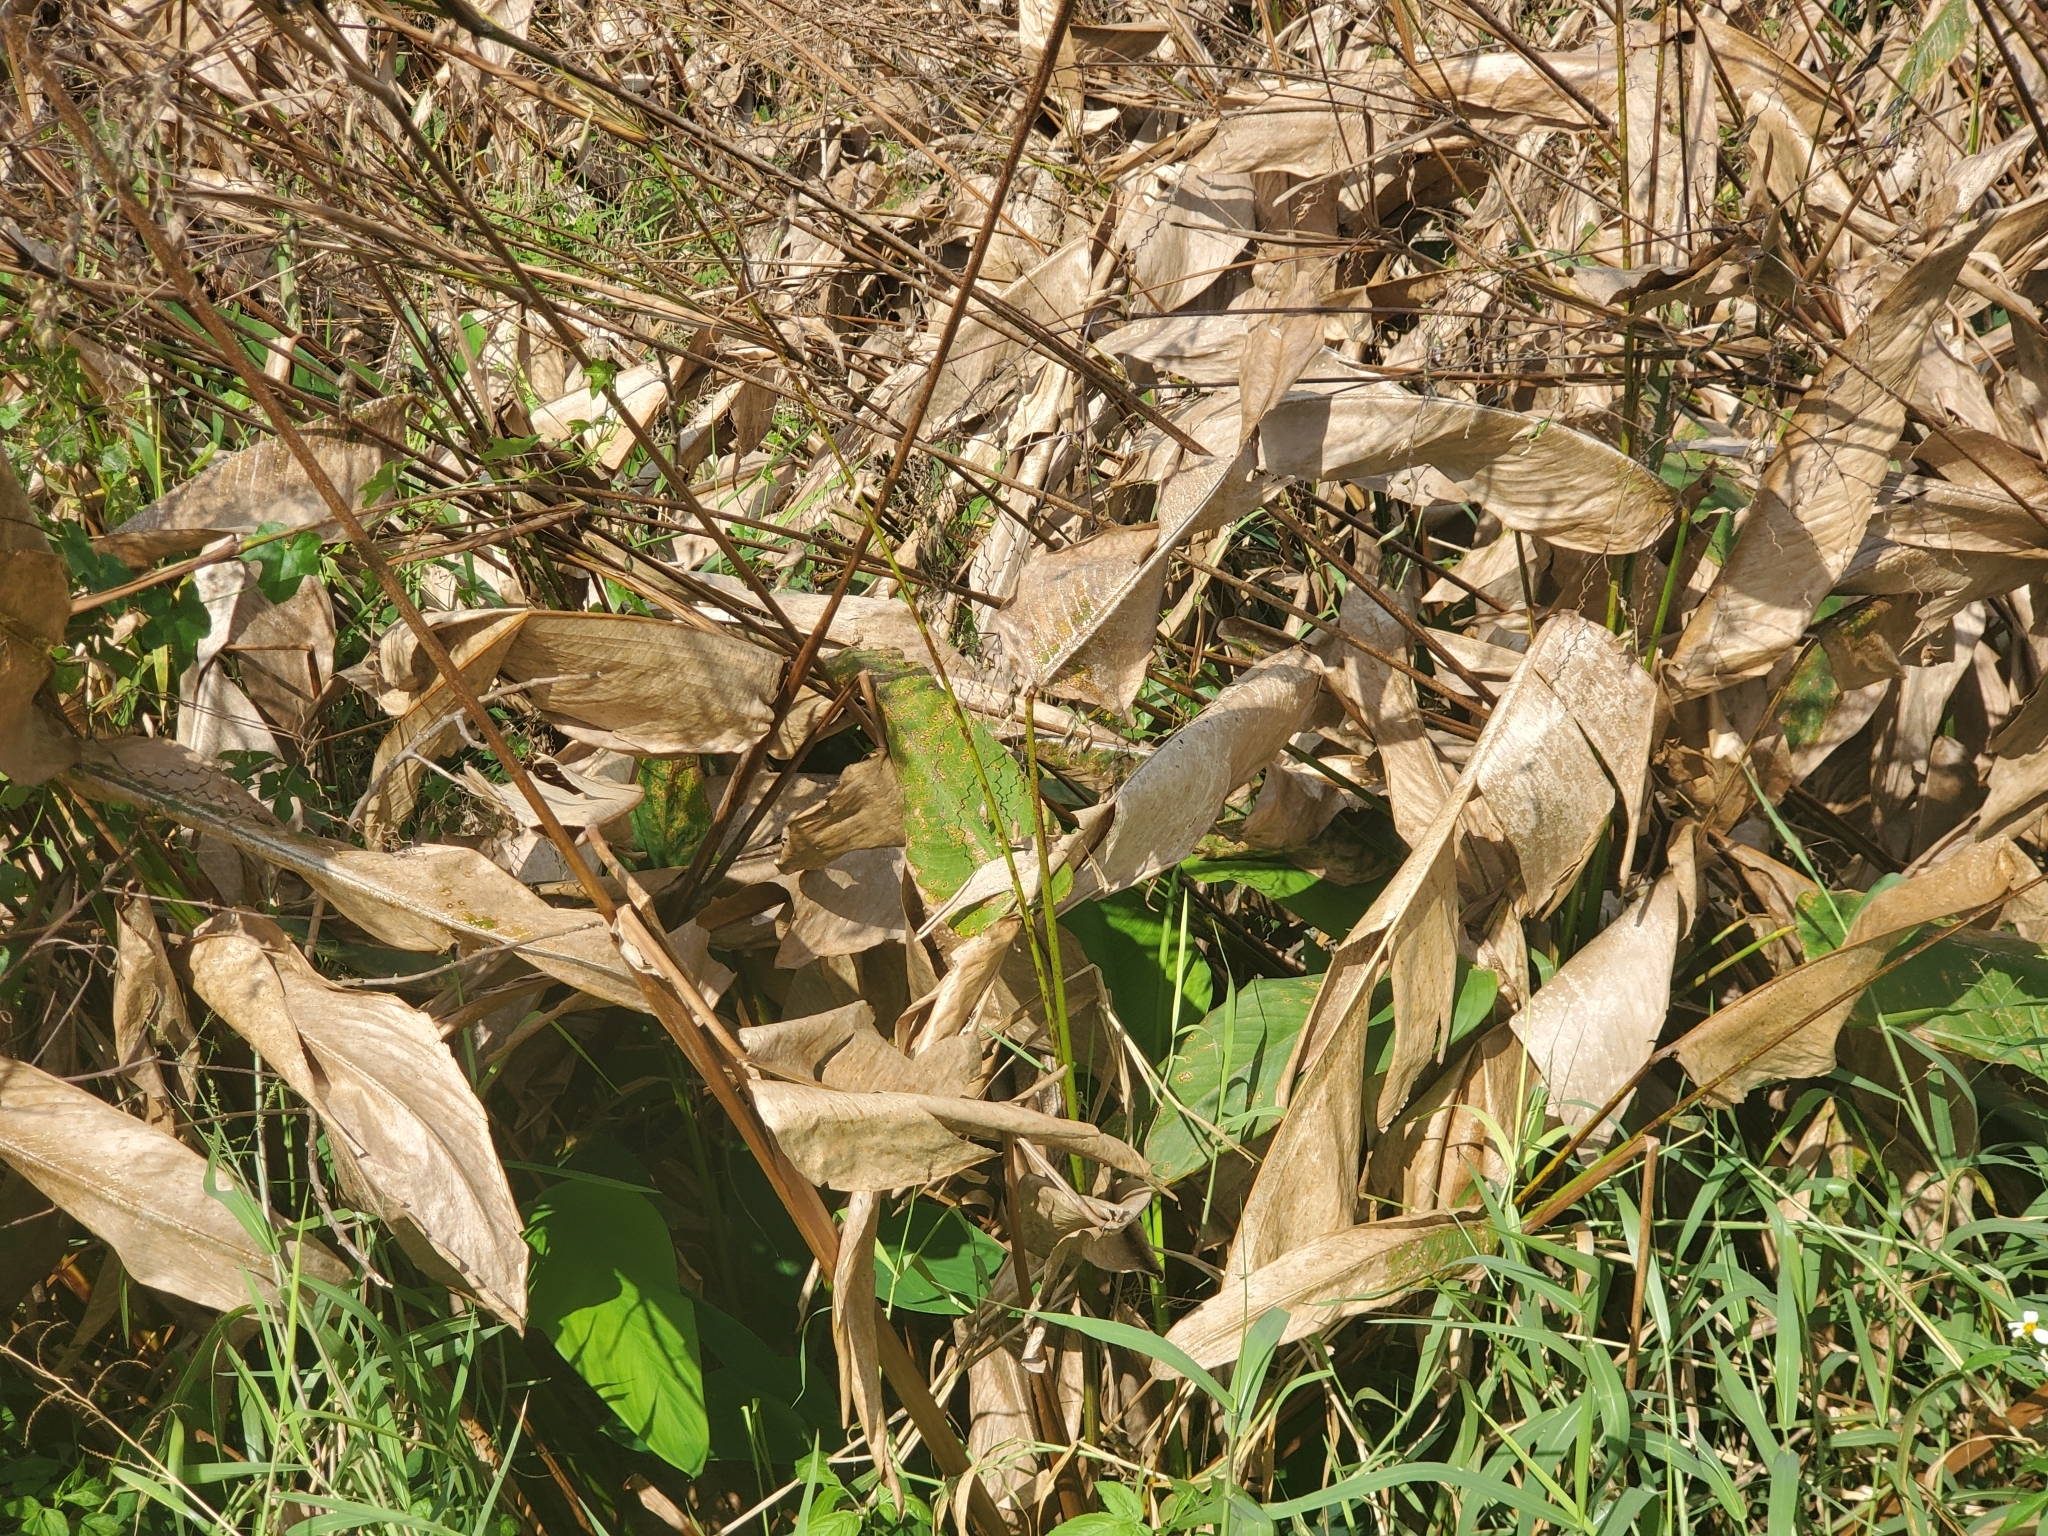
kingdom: Plantae
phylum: Tracheophyta
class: Liliopsida
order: Zingiberales
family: Marantaceae
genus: Thalia
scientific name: Thalia geniculata
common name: Arrowroot
